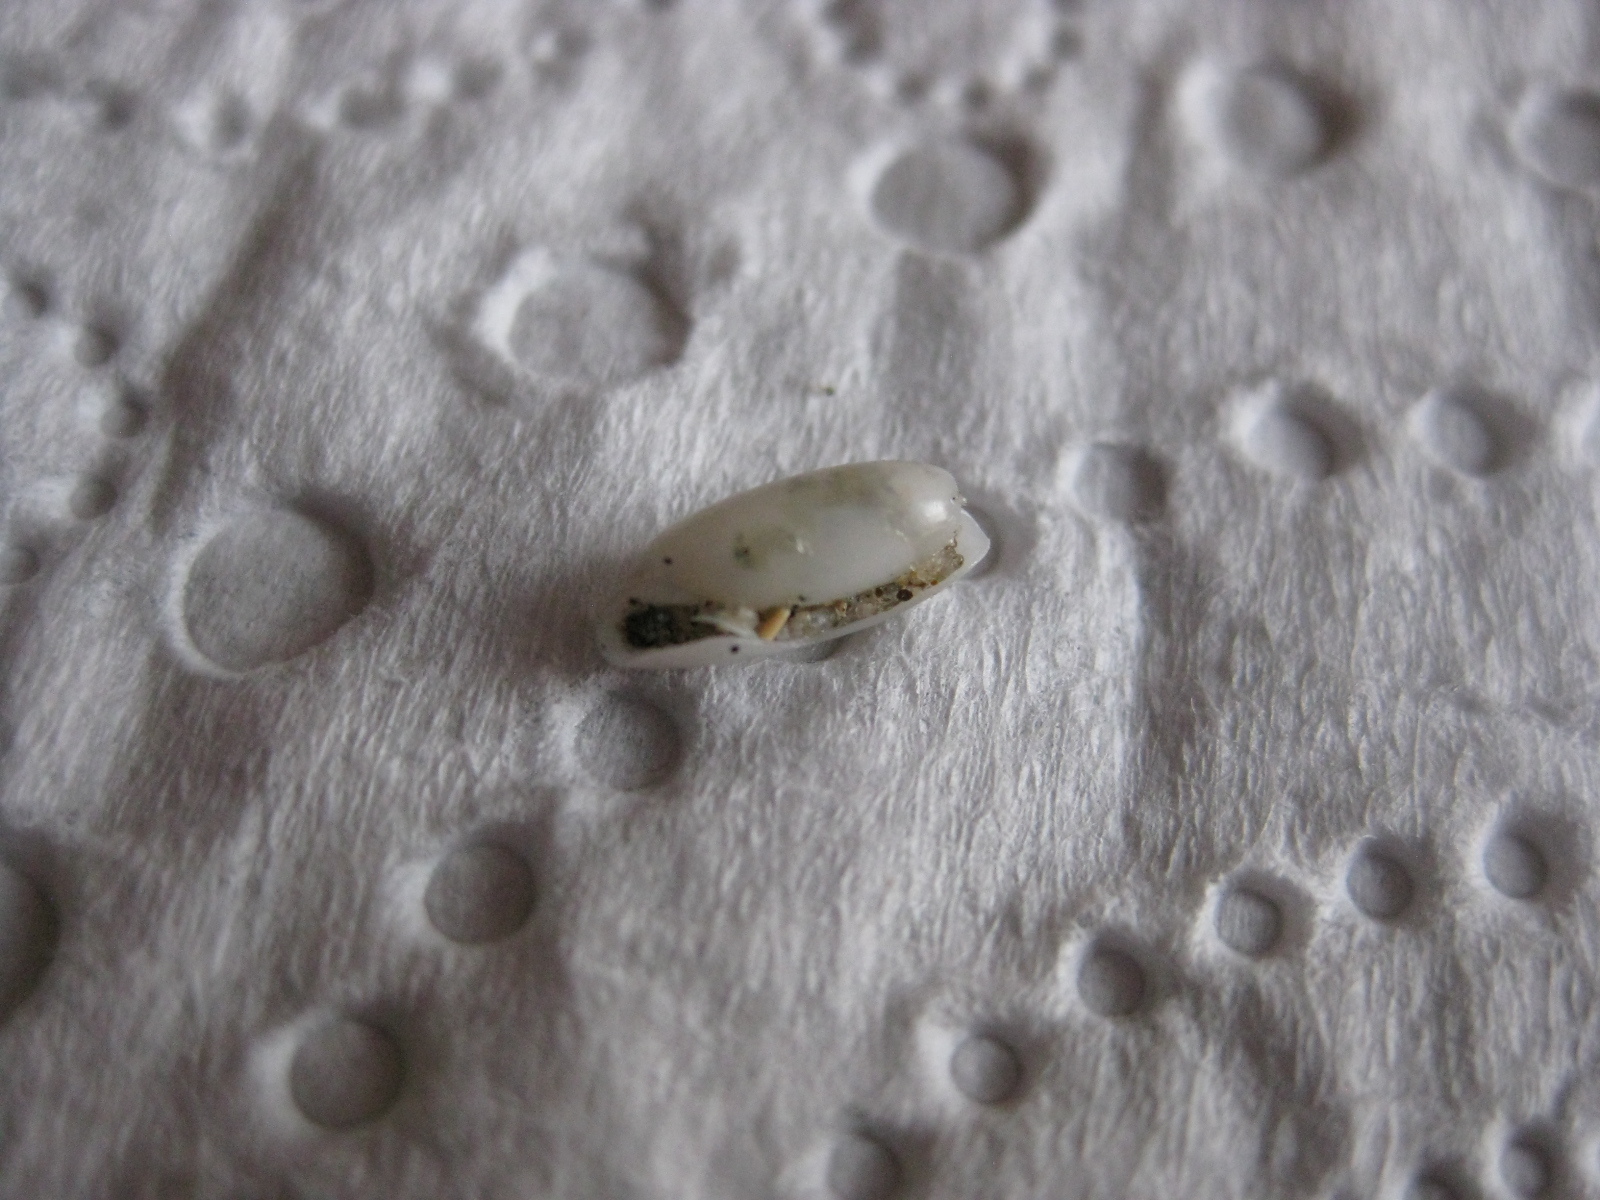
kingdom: Animalia
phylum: Mollusca
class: Gastropoda
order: Cephalaspidea
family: Cylichnidae
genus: Cylichna
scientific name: Cylichna thetidis
